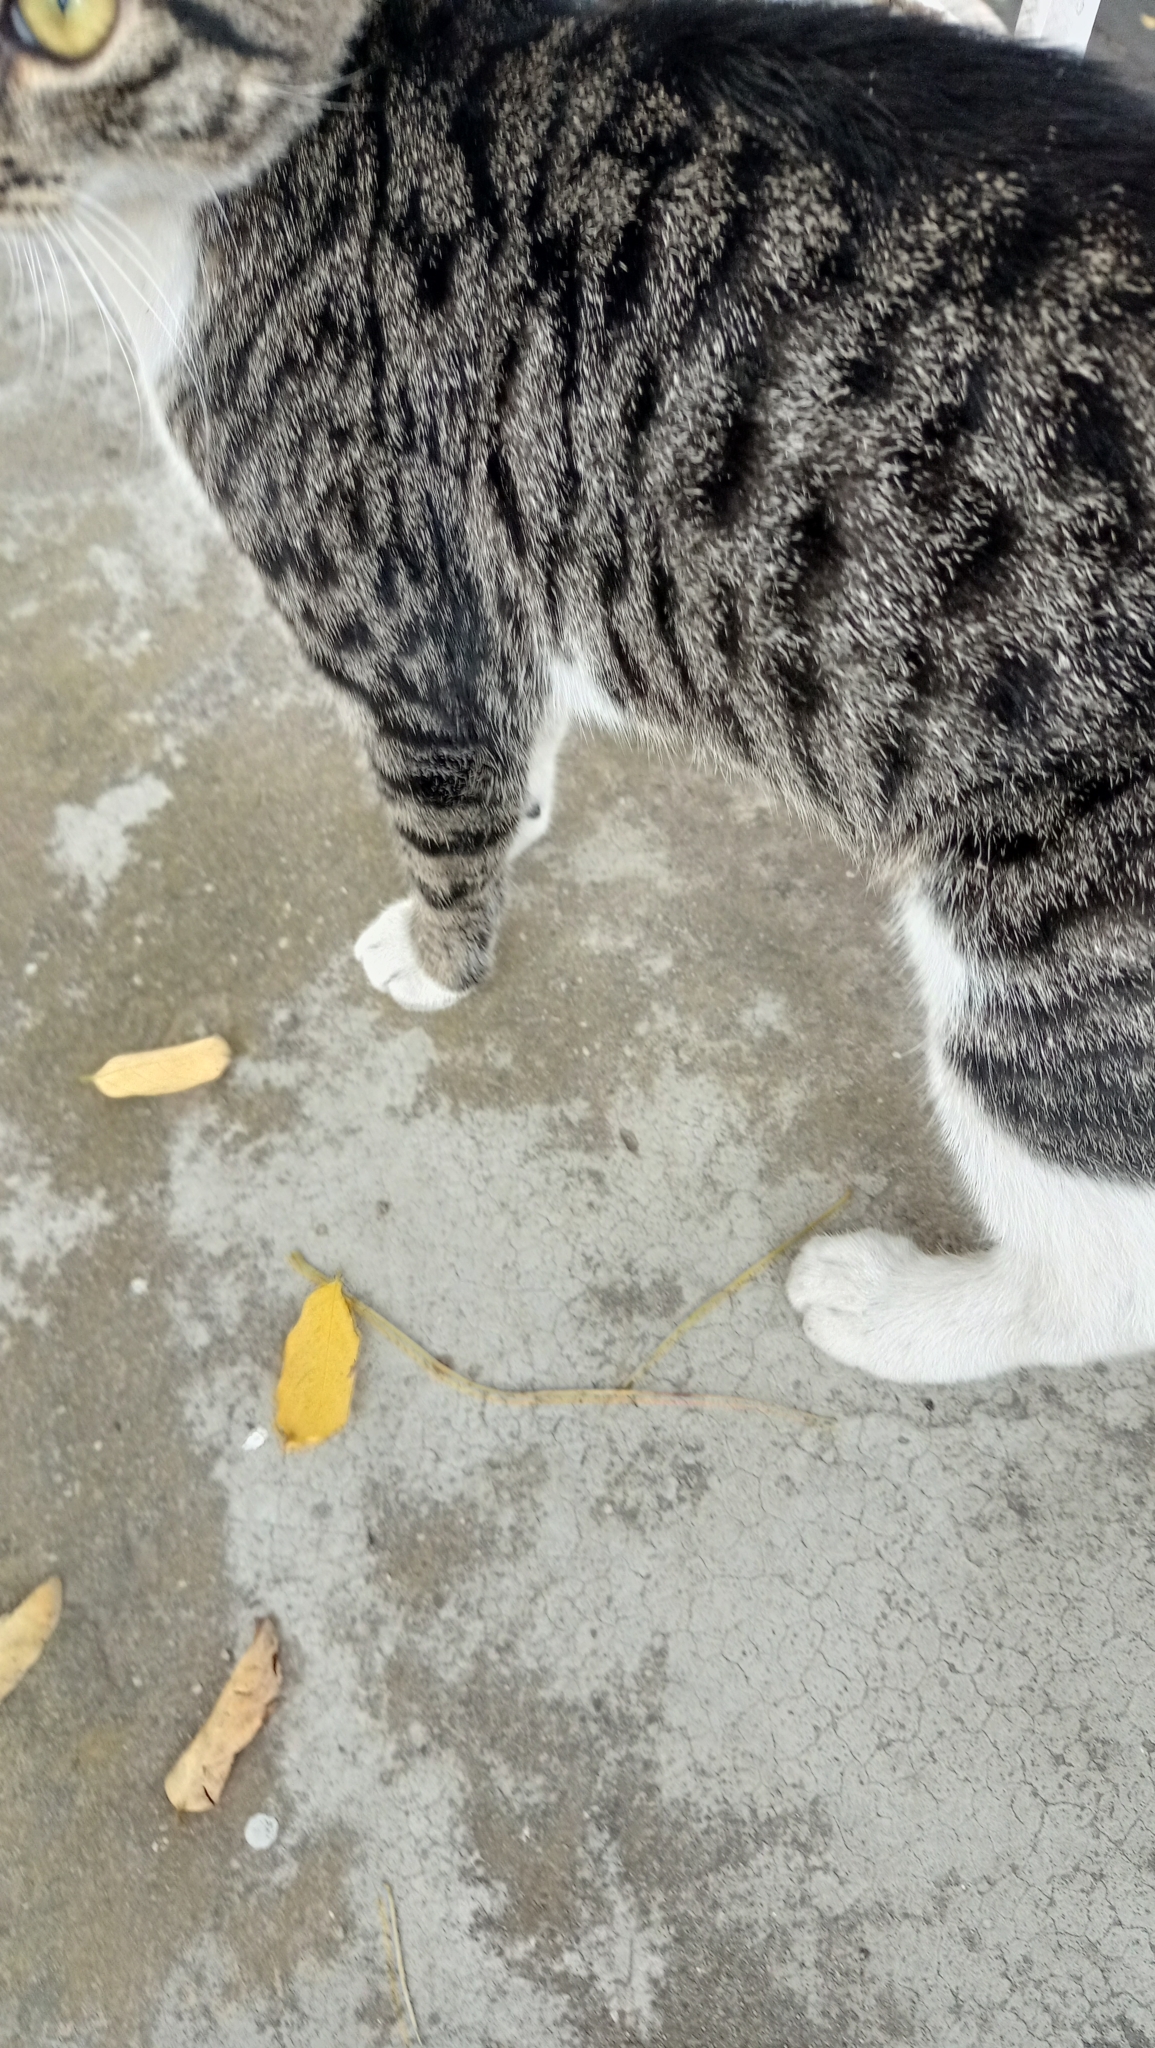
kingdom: Animalia
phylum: Chordata
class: Mammalia
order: Carnivora
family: Felidae
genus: Felis
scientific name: Felis catus
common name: Domestic cat
